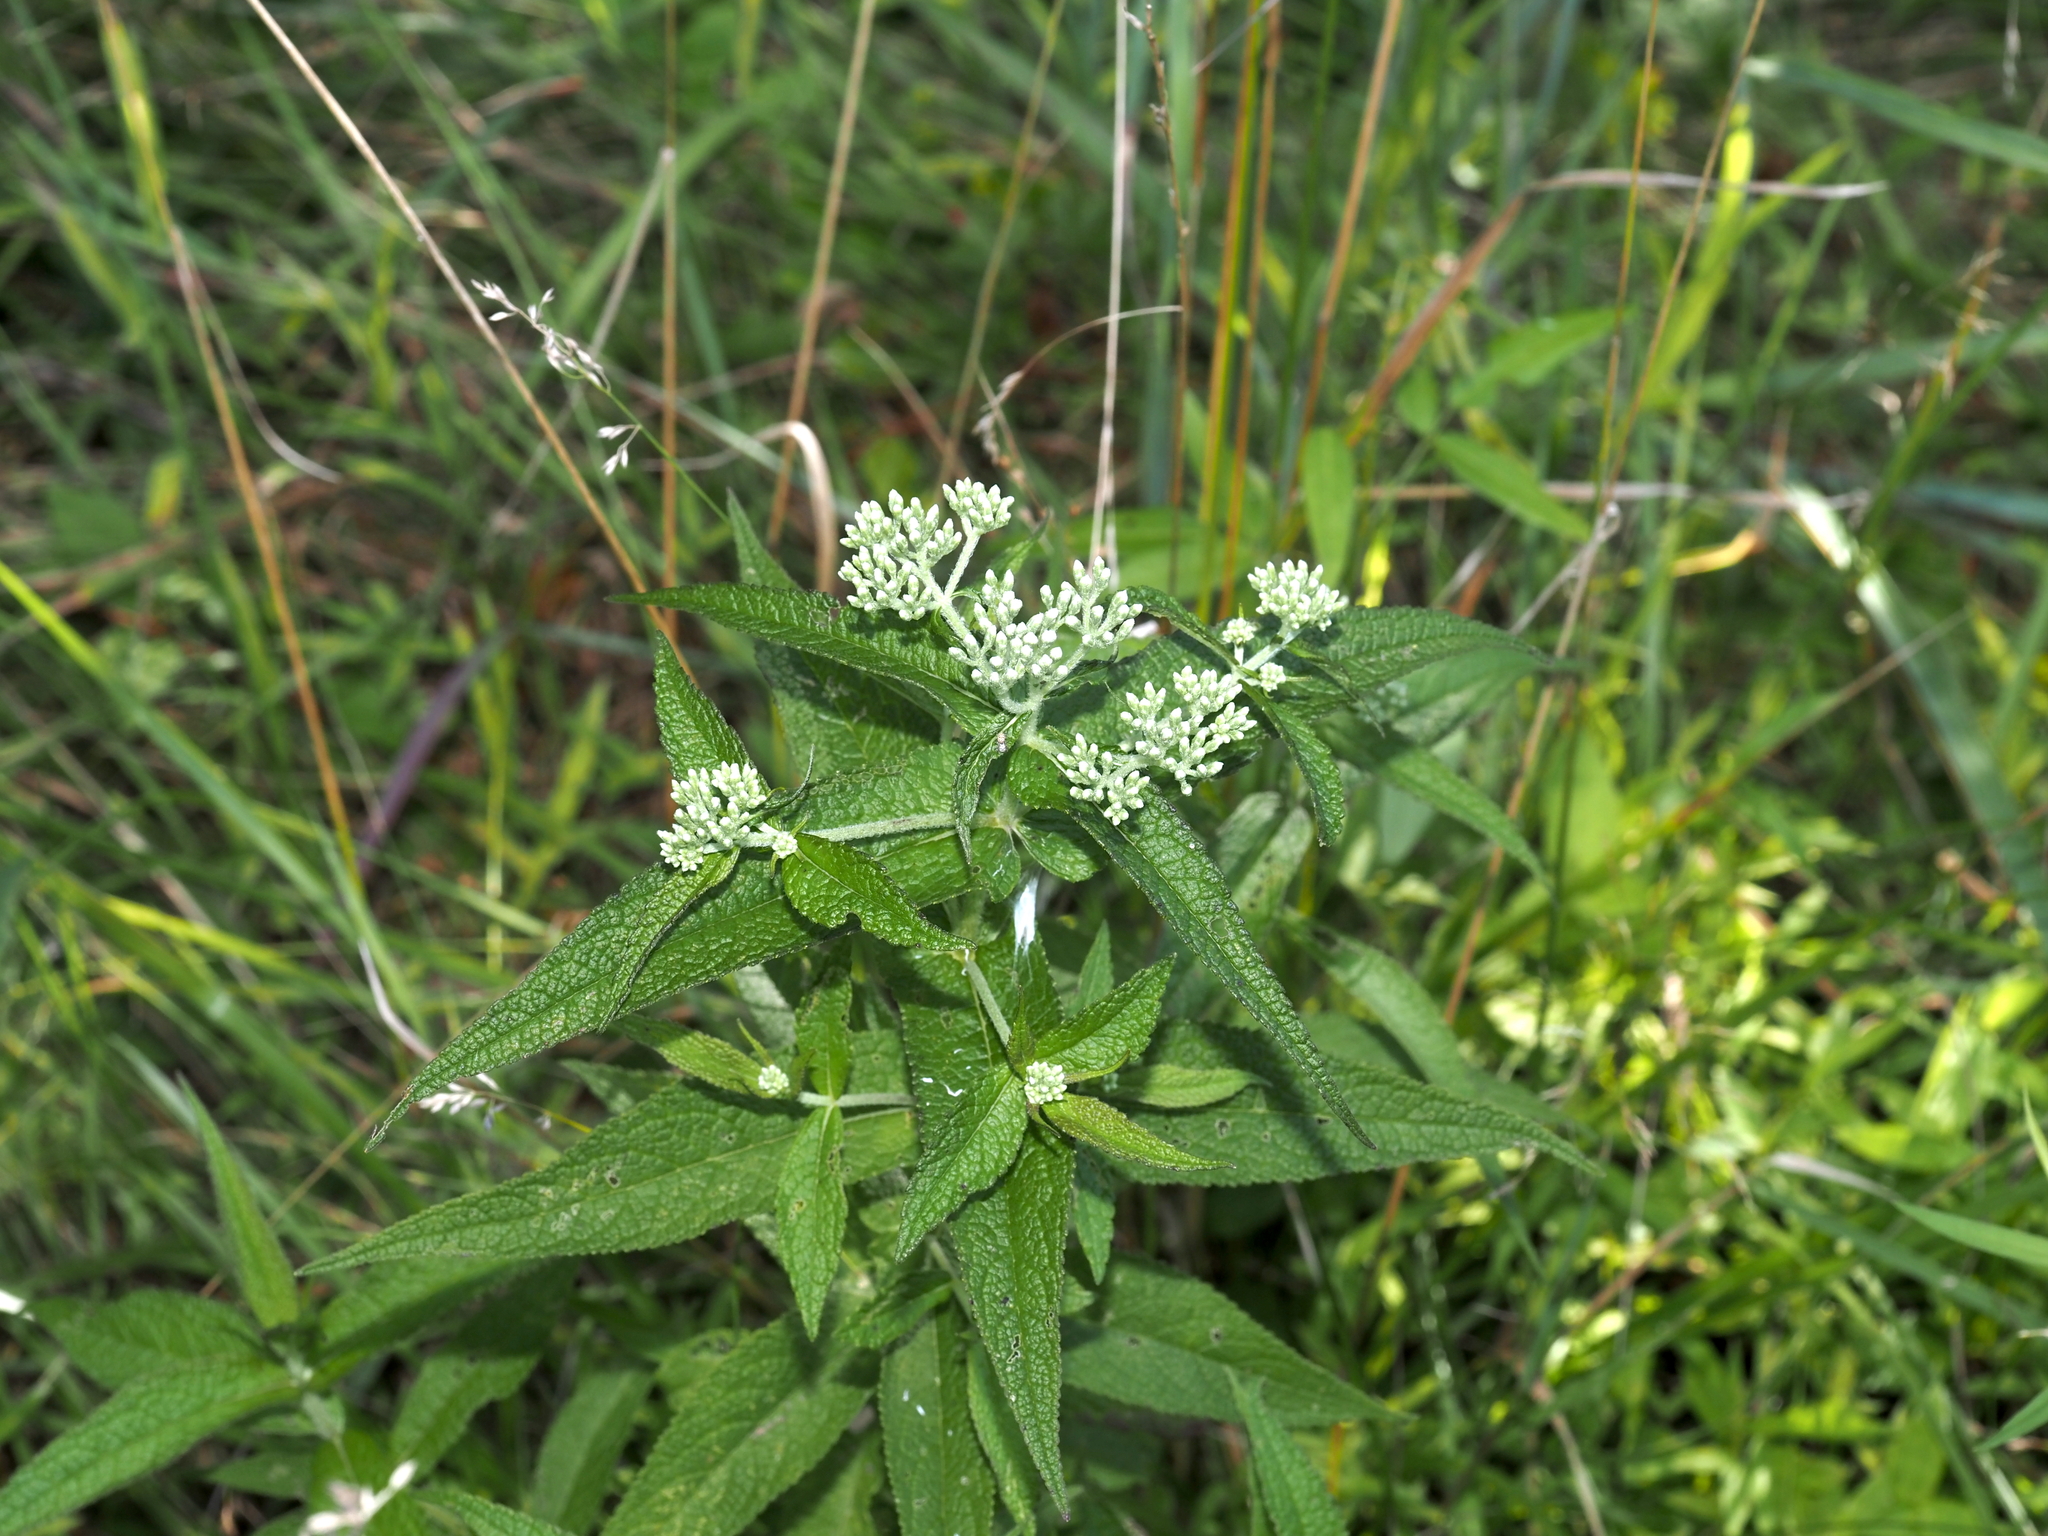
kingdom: Plantae
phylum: Tracheophyta
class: Magnoliopsida
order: Asterales
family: Asteraceae
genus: Eupatorium
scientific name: Eupatorium perfoliatum
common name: Boneset
